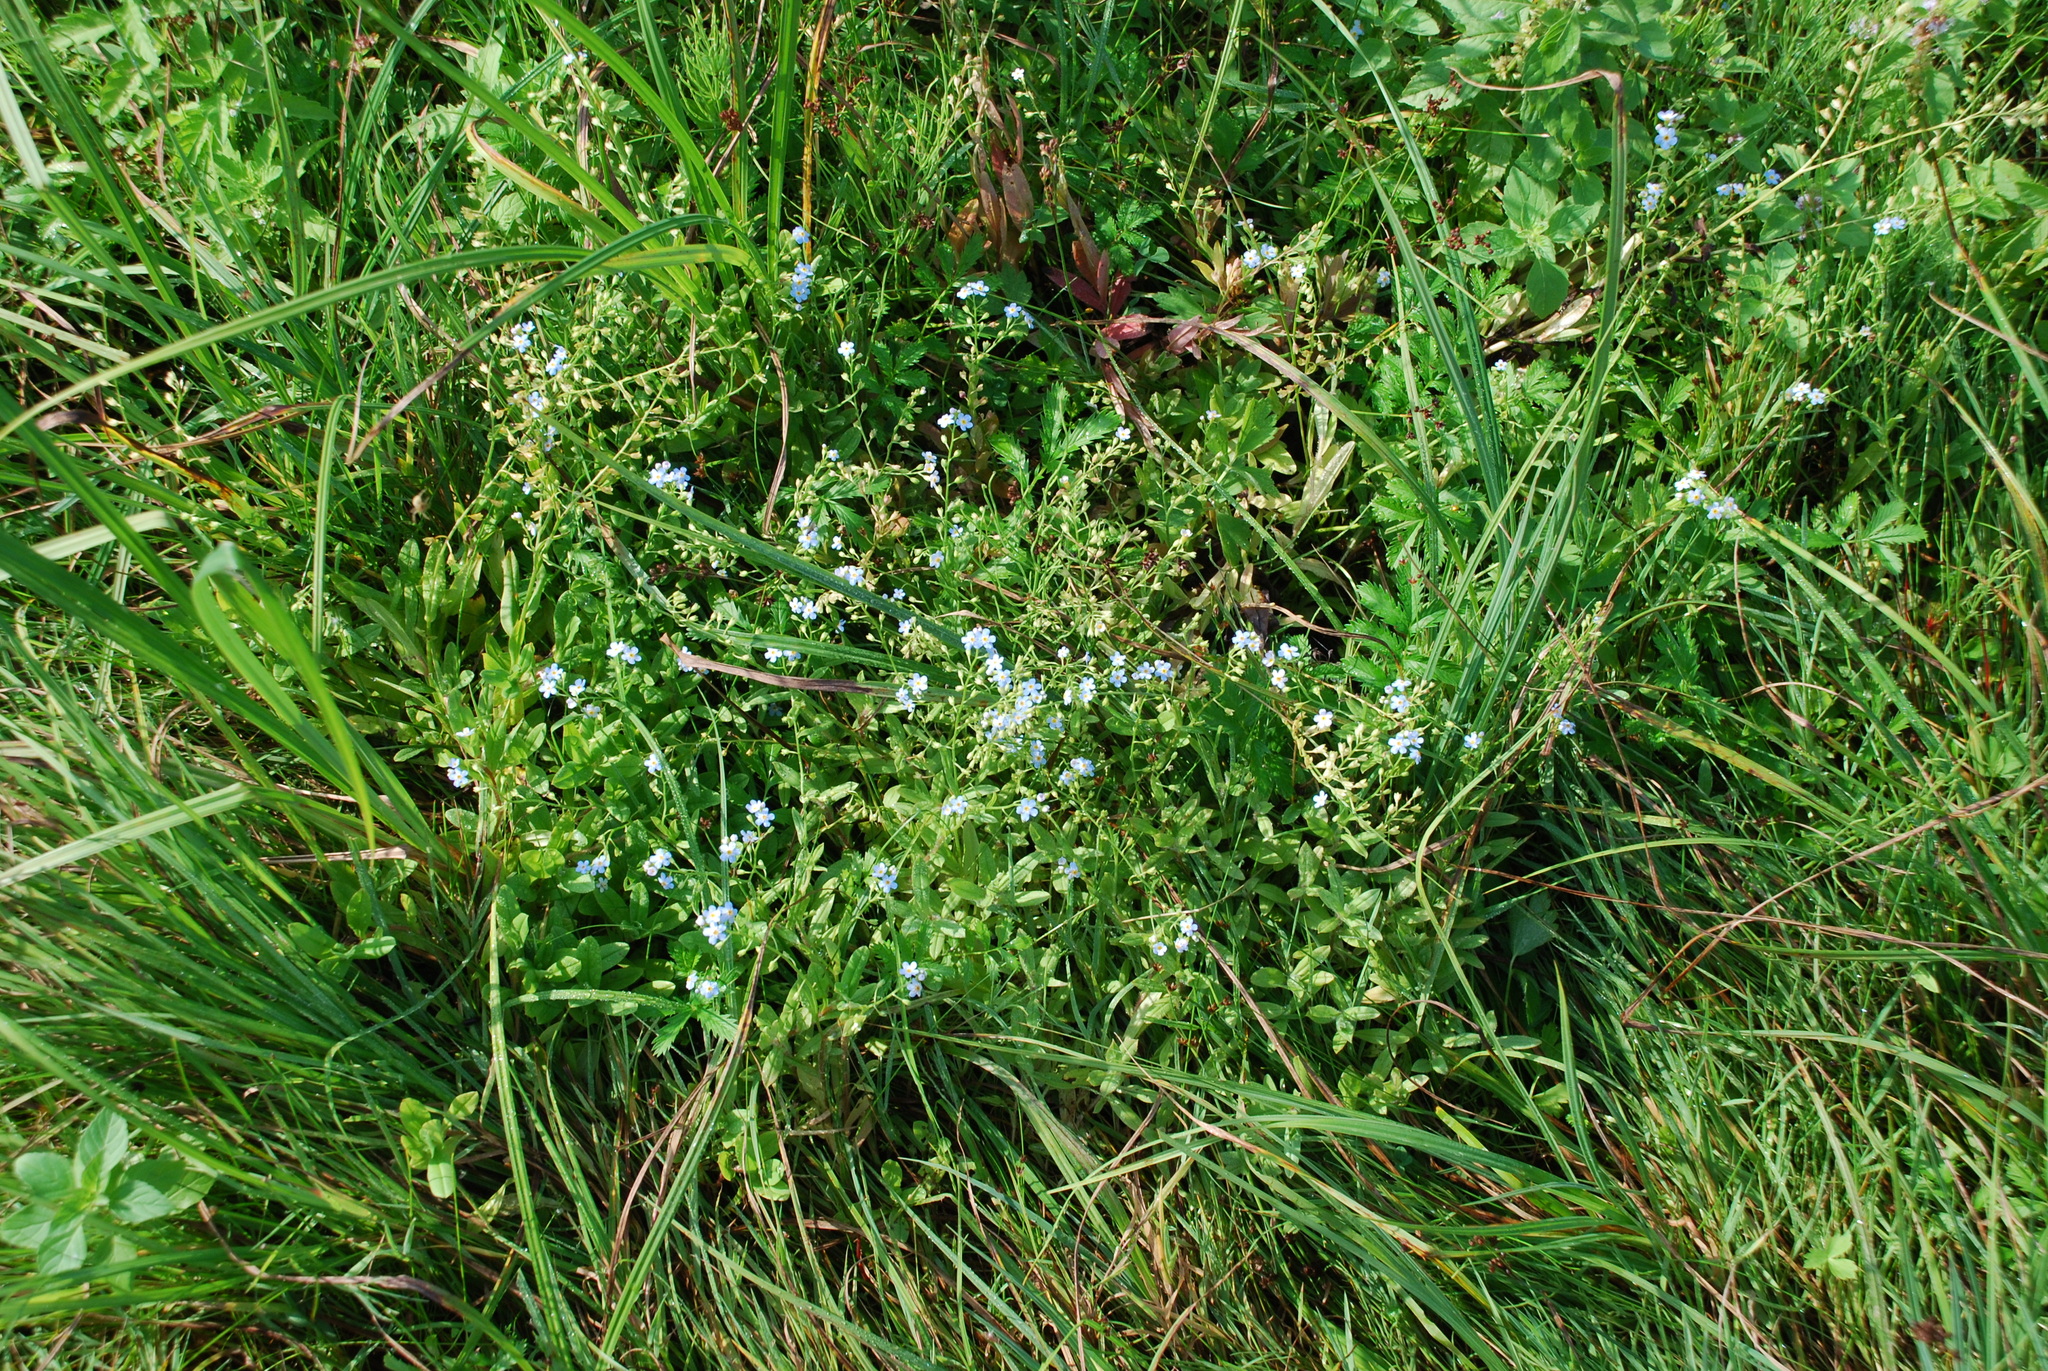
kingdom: Plantae
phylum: Tracheophyta
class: Magnoliopsida
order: Boraginales
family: Boraginaceae
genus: Myosotis
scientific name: Myosotis scorpioides
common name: Water forget-me-not
